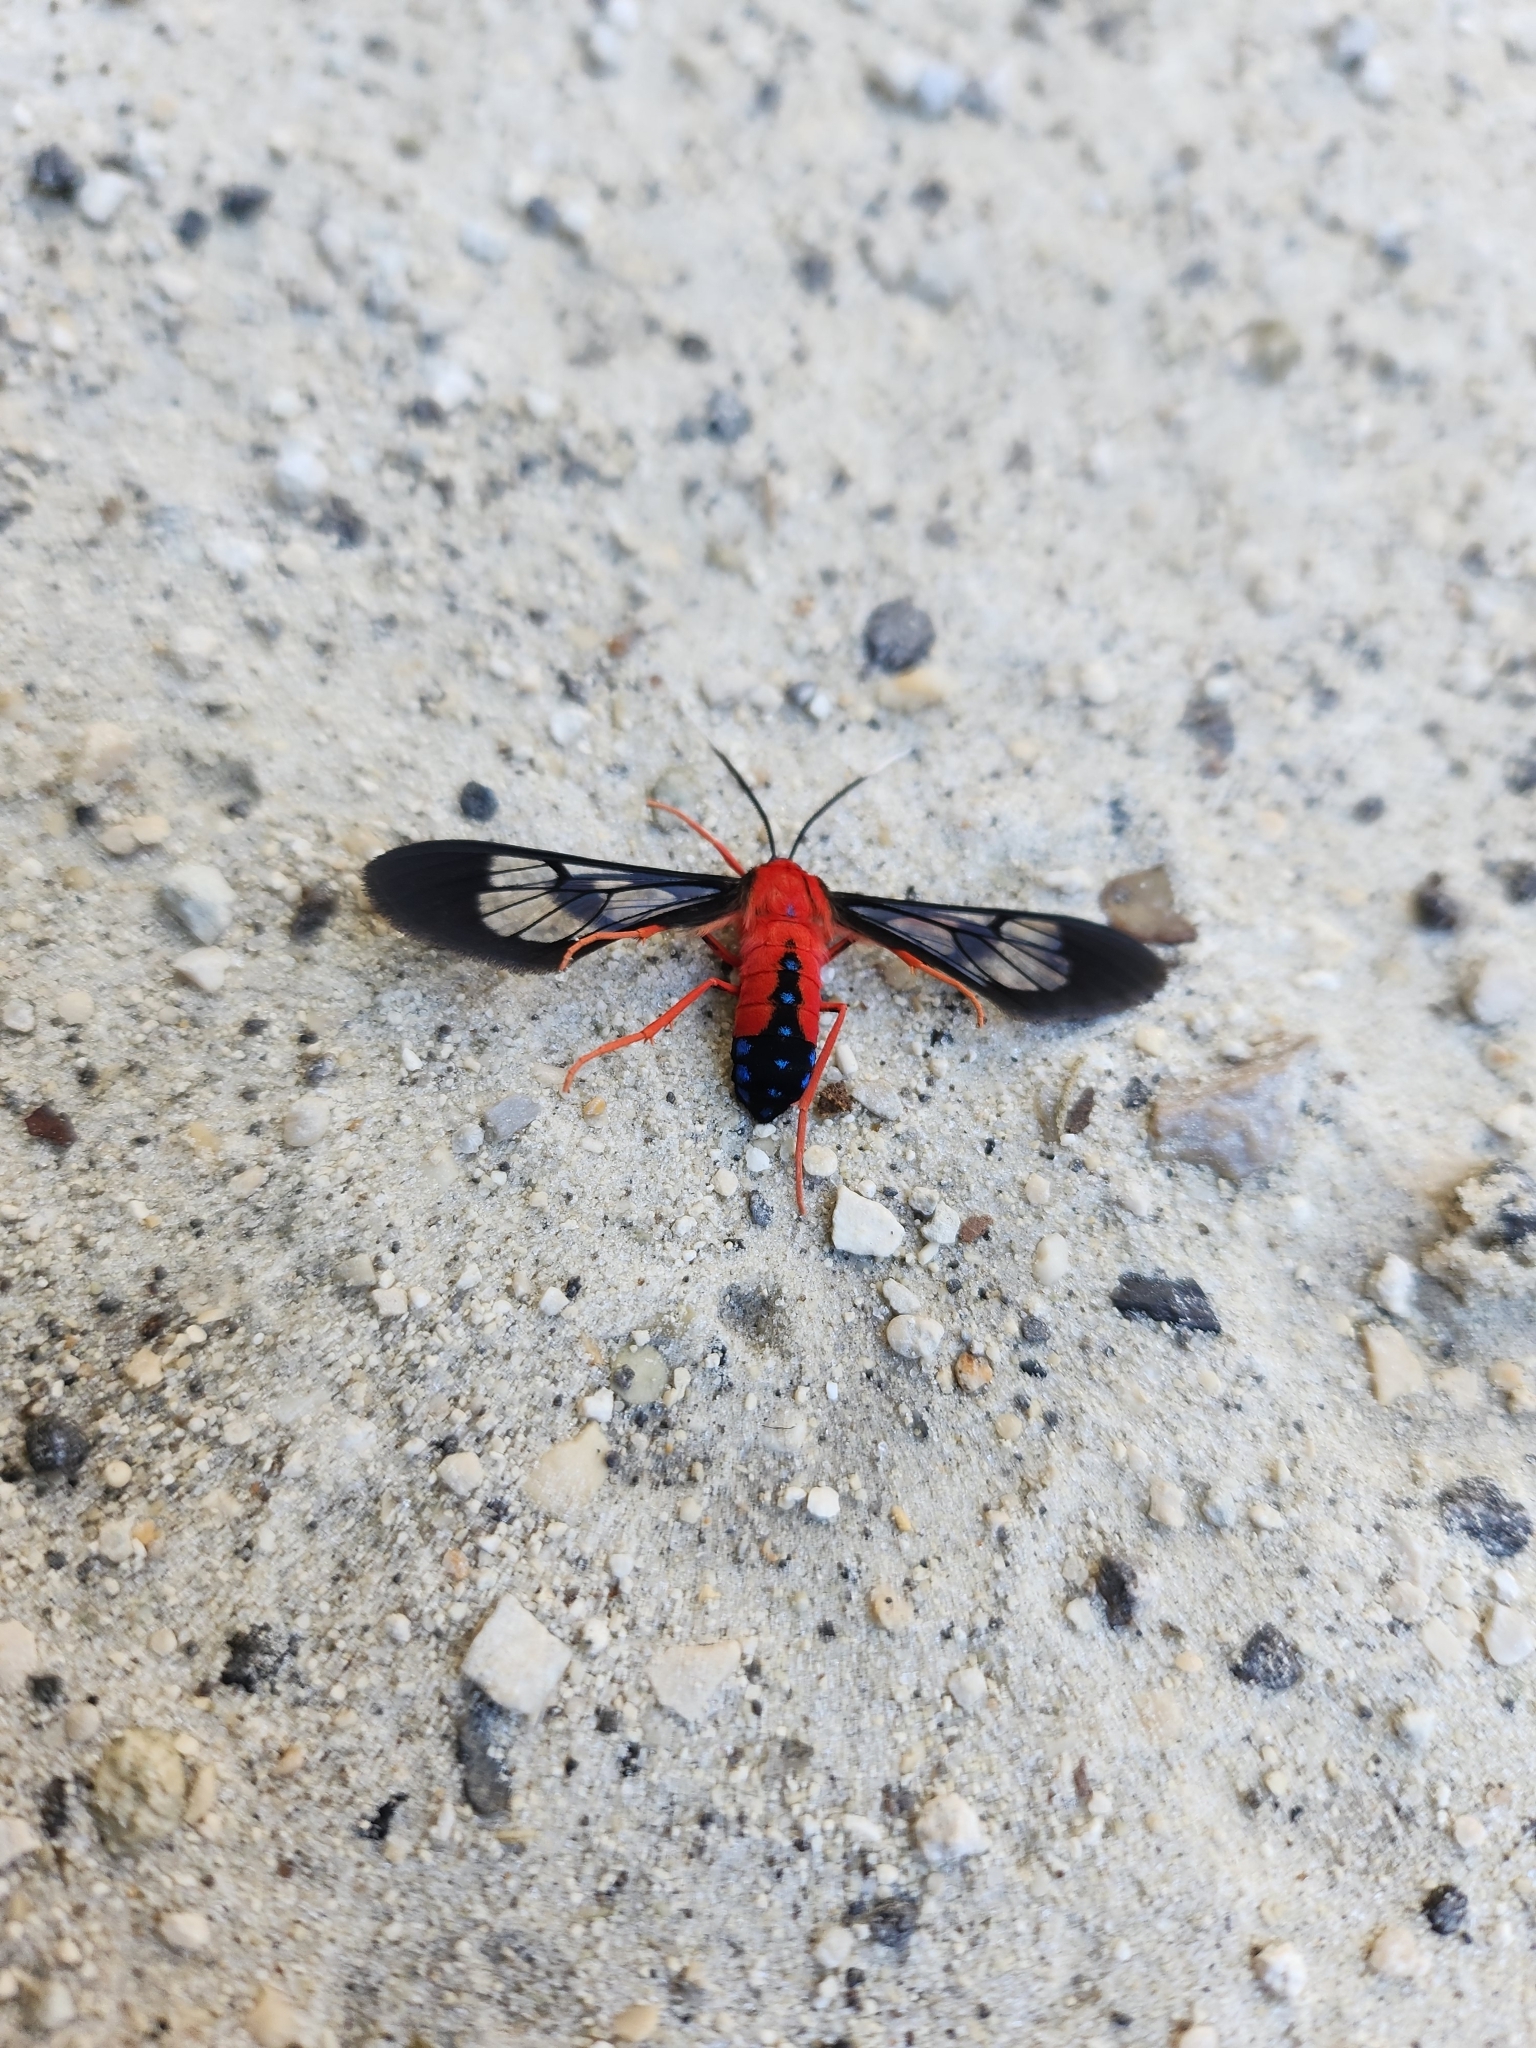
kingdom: Animalia
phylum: Arthropoda
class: Insecta
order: Lepidoptera
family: Erebidae
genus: Cosmosoma
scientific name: Cosmosoma myrodora
